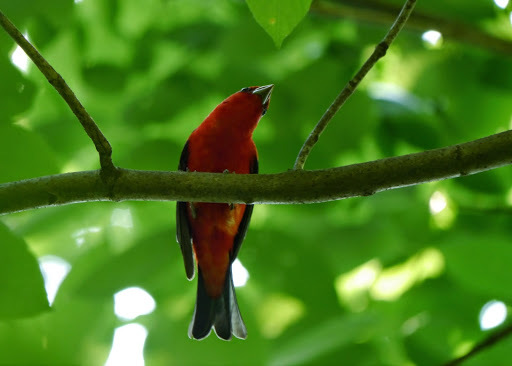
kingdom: Animalia
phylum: Chordata
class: Aves
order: Passeriformes
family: Cardinalidae
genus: Piranga
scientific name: Piranga olivacea
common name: Scarlet tanager
